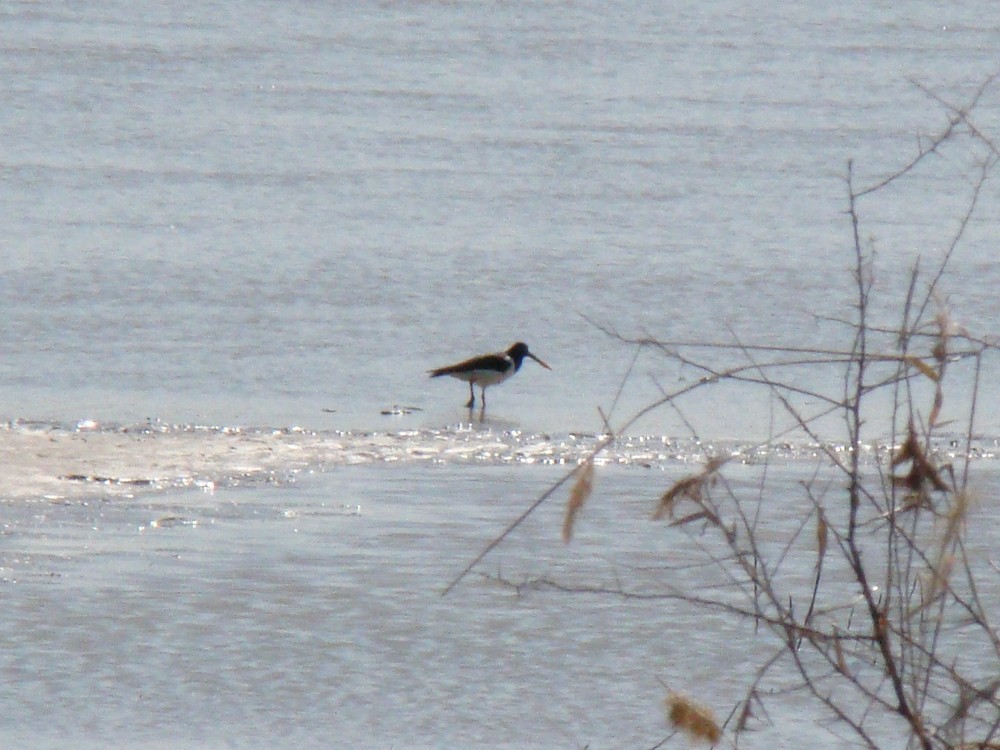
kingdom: Animalia
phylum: Chordata
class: Aves
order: Charadriiformes
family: Haematopodidae
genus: Haematopus
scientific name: Haematopus ostralegus
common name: Eurasian oystercatcher
